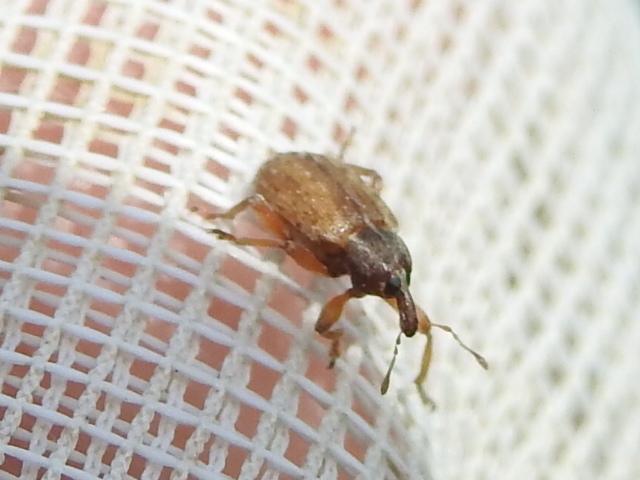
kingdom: Animalia
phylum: Arthropoda
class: Insecta
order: Coleoptera
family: Curculionidae
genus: Hypera
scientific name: Hypera postica
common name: Weevil
